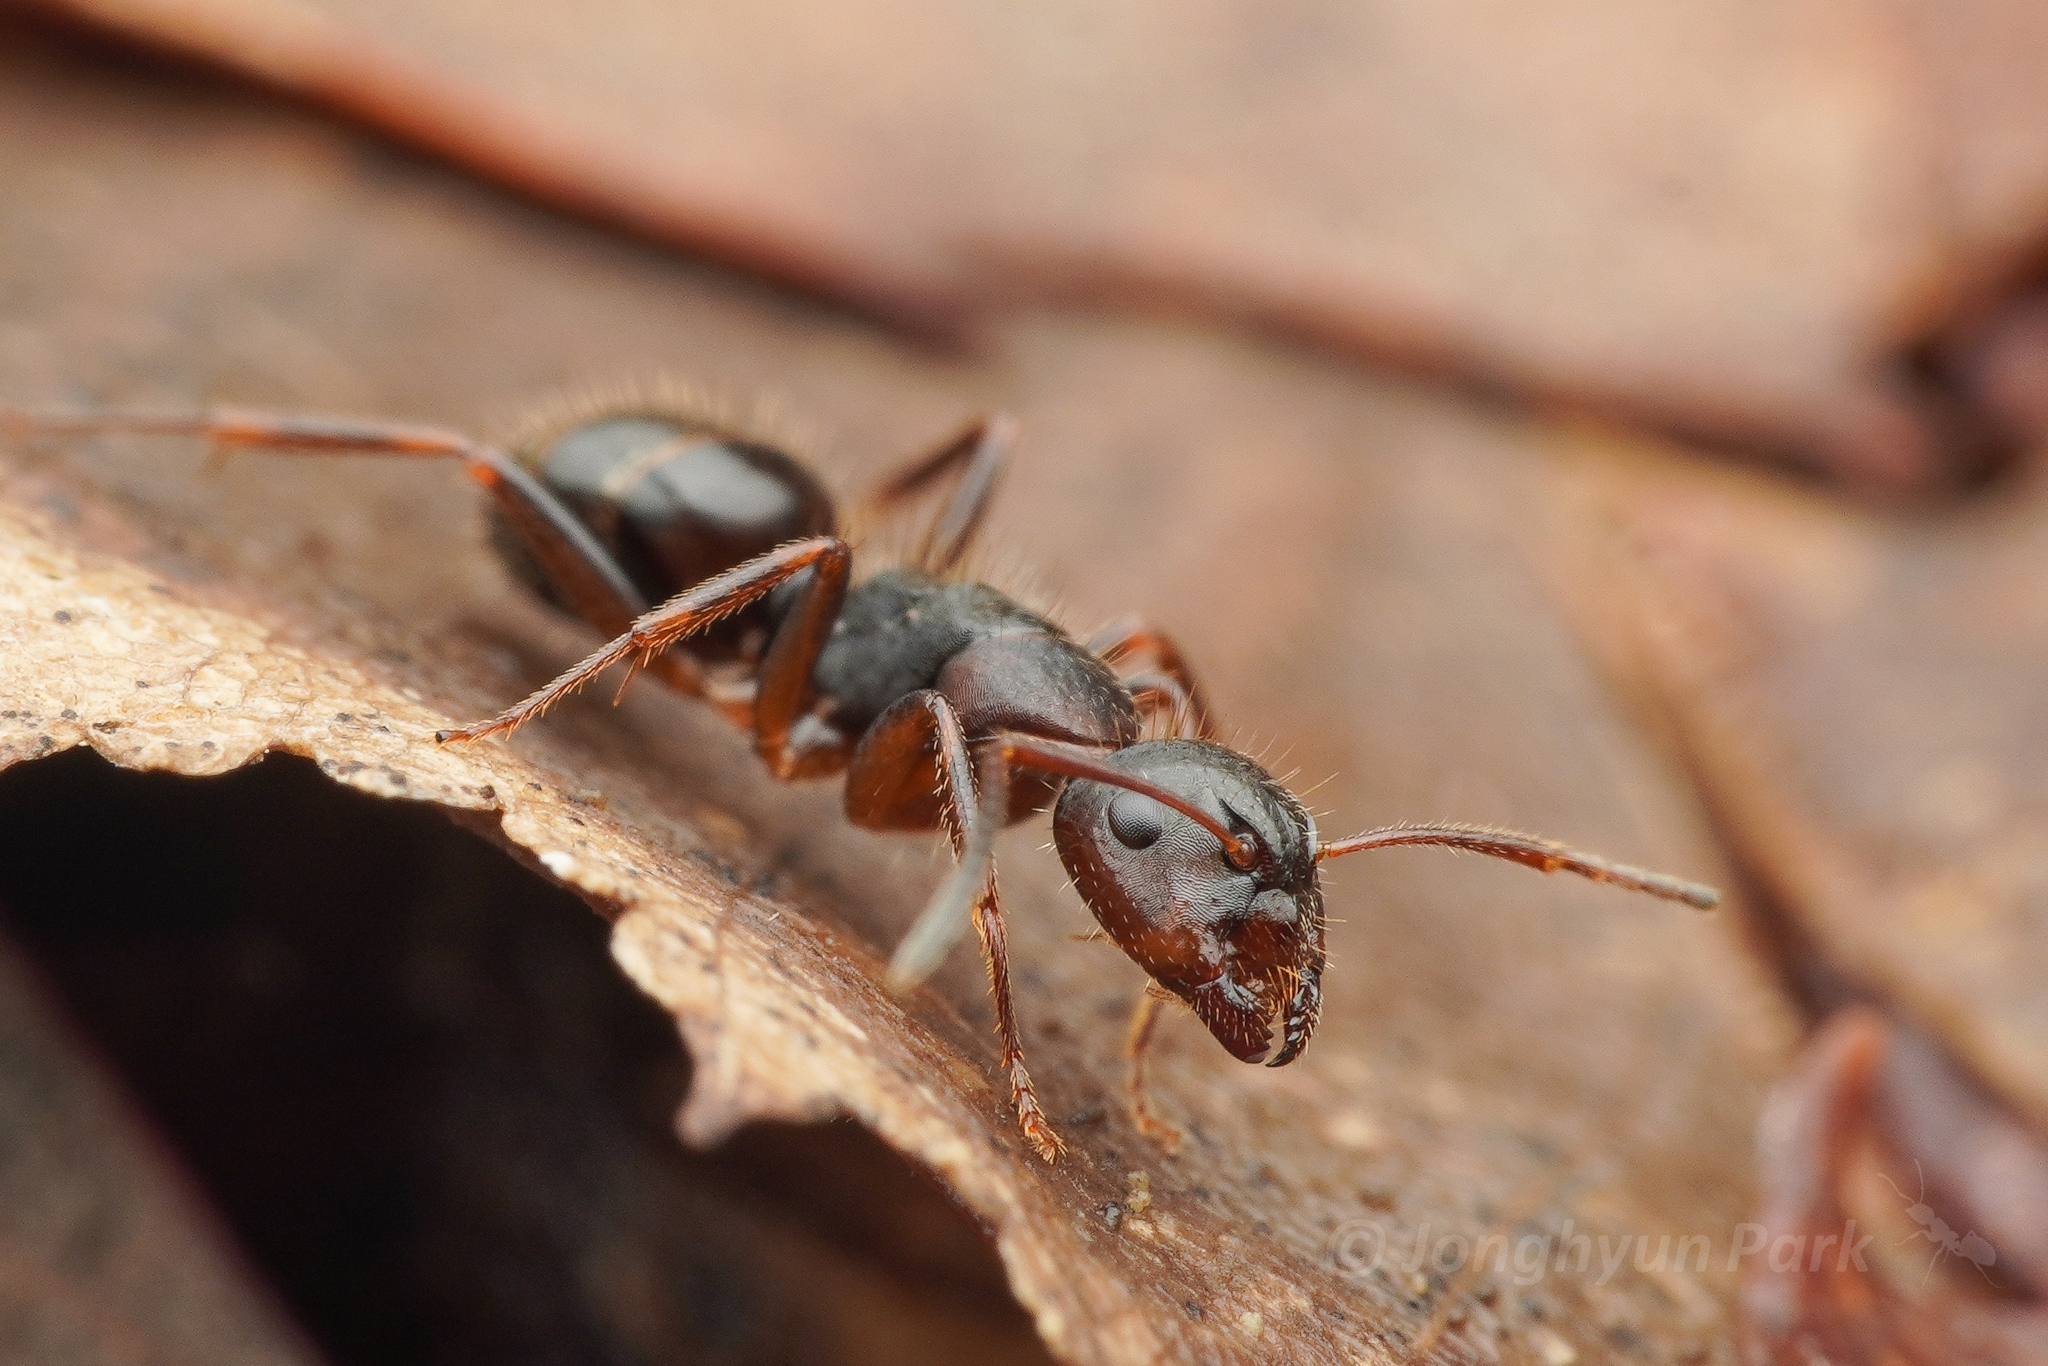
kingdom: Animalia
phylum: Arthropoda
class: Insecta
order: Hymenoptera
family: Formicidae
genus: Camponotus
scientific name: Camponotus nipponensis
